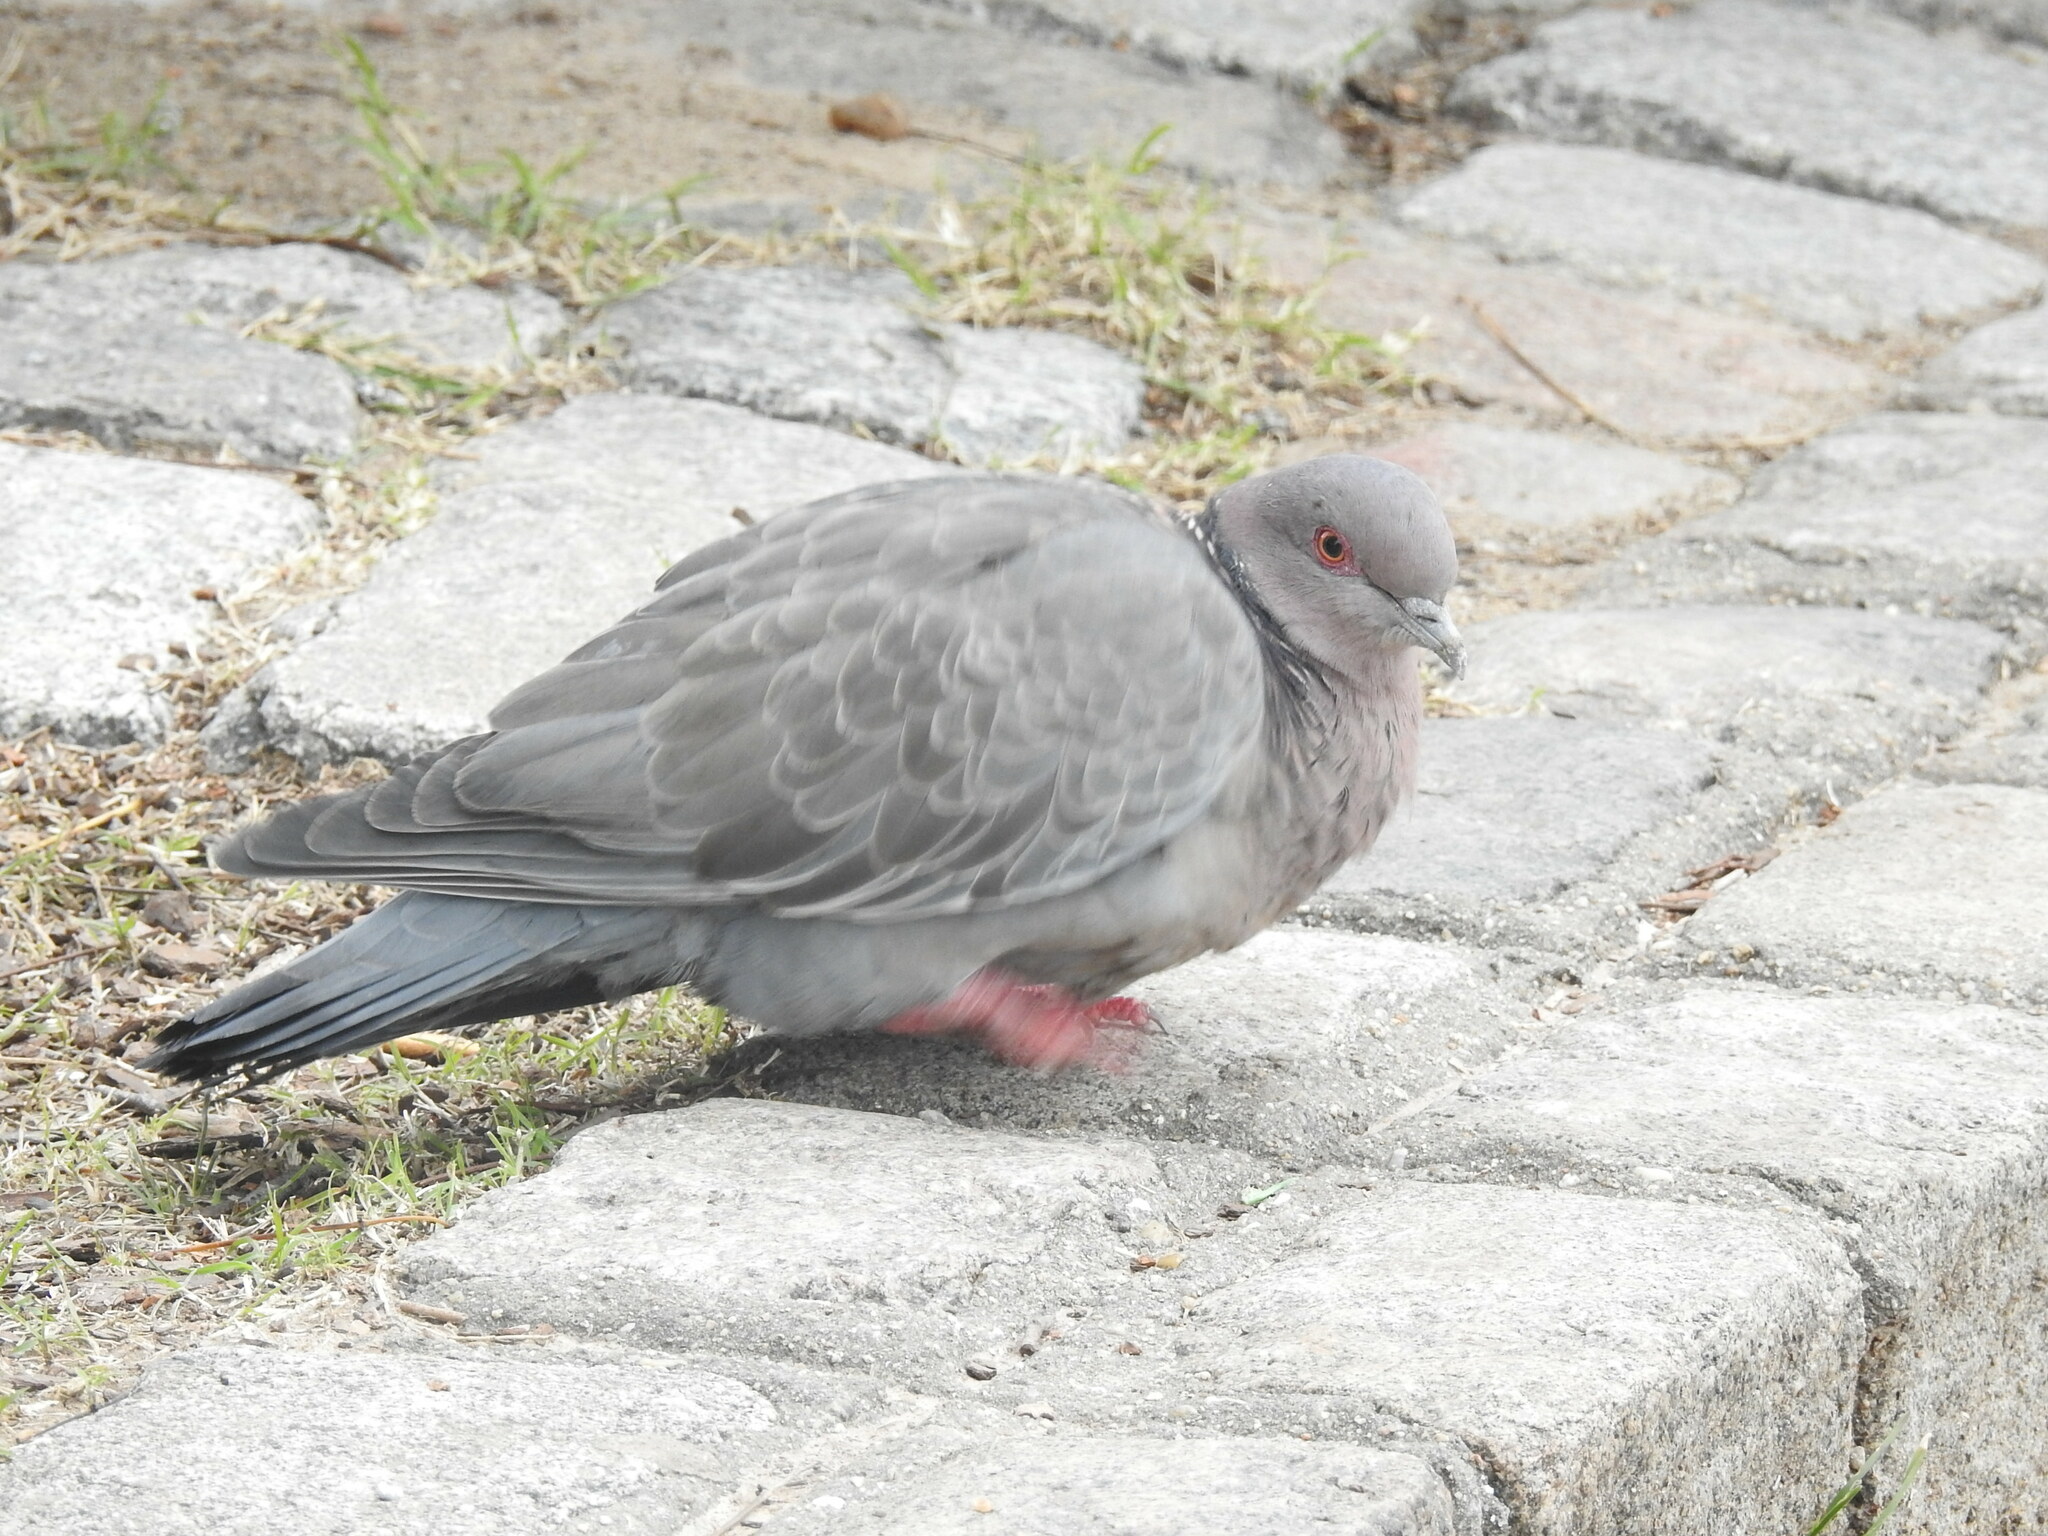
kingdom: Animalia
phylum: Chordata
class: Aves
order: Columbiformes
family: Columbidae
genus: Patagioenas
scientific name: Patagioenas picazuro
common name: Picazuro pigeon
